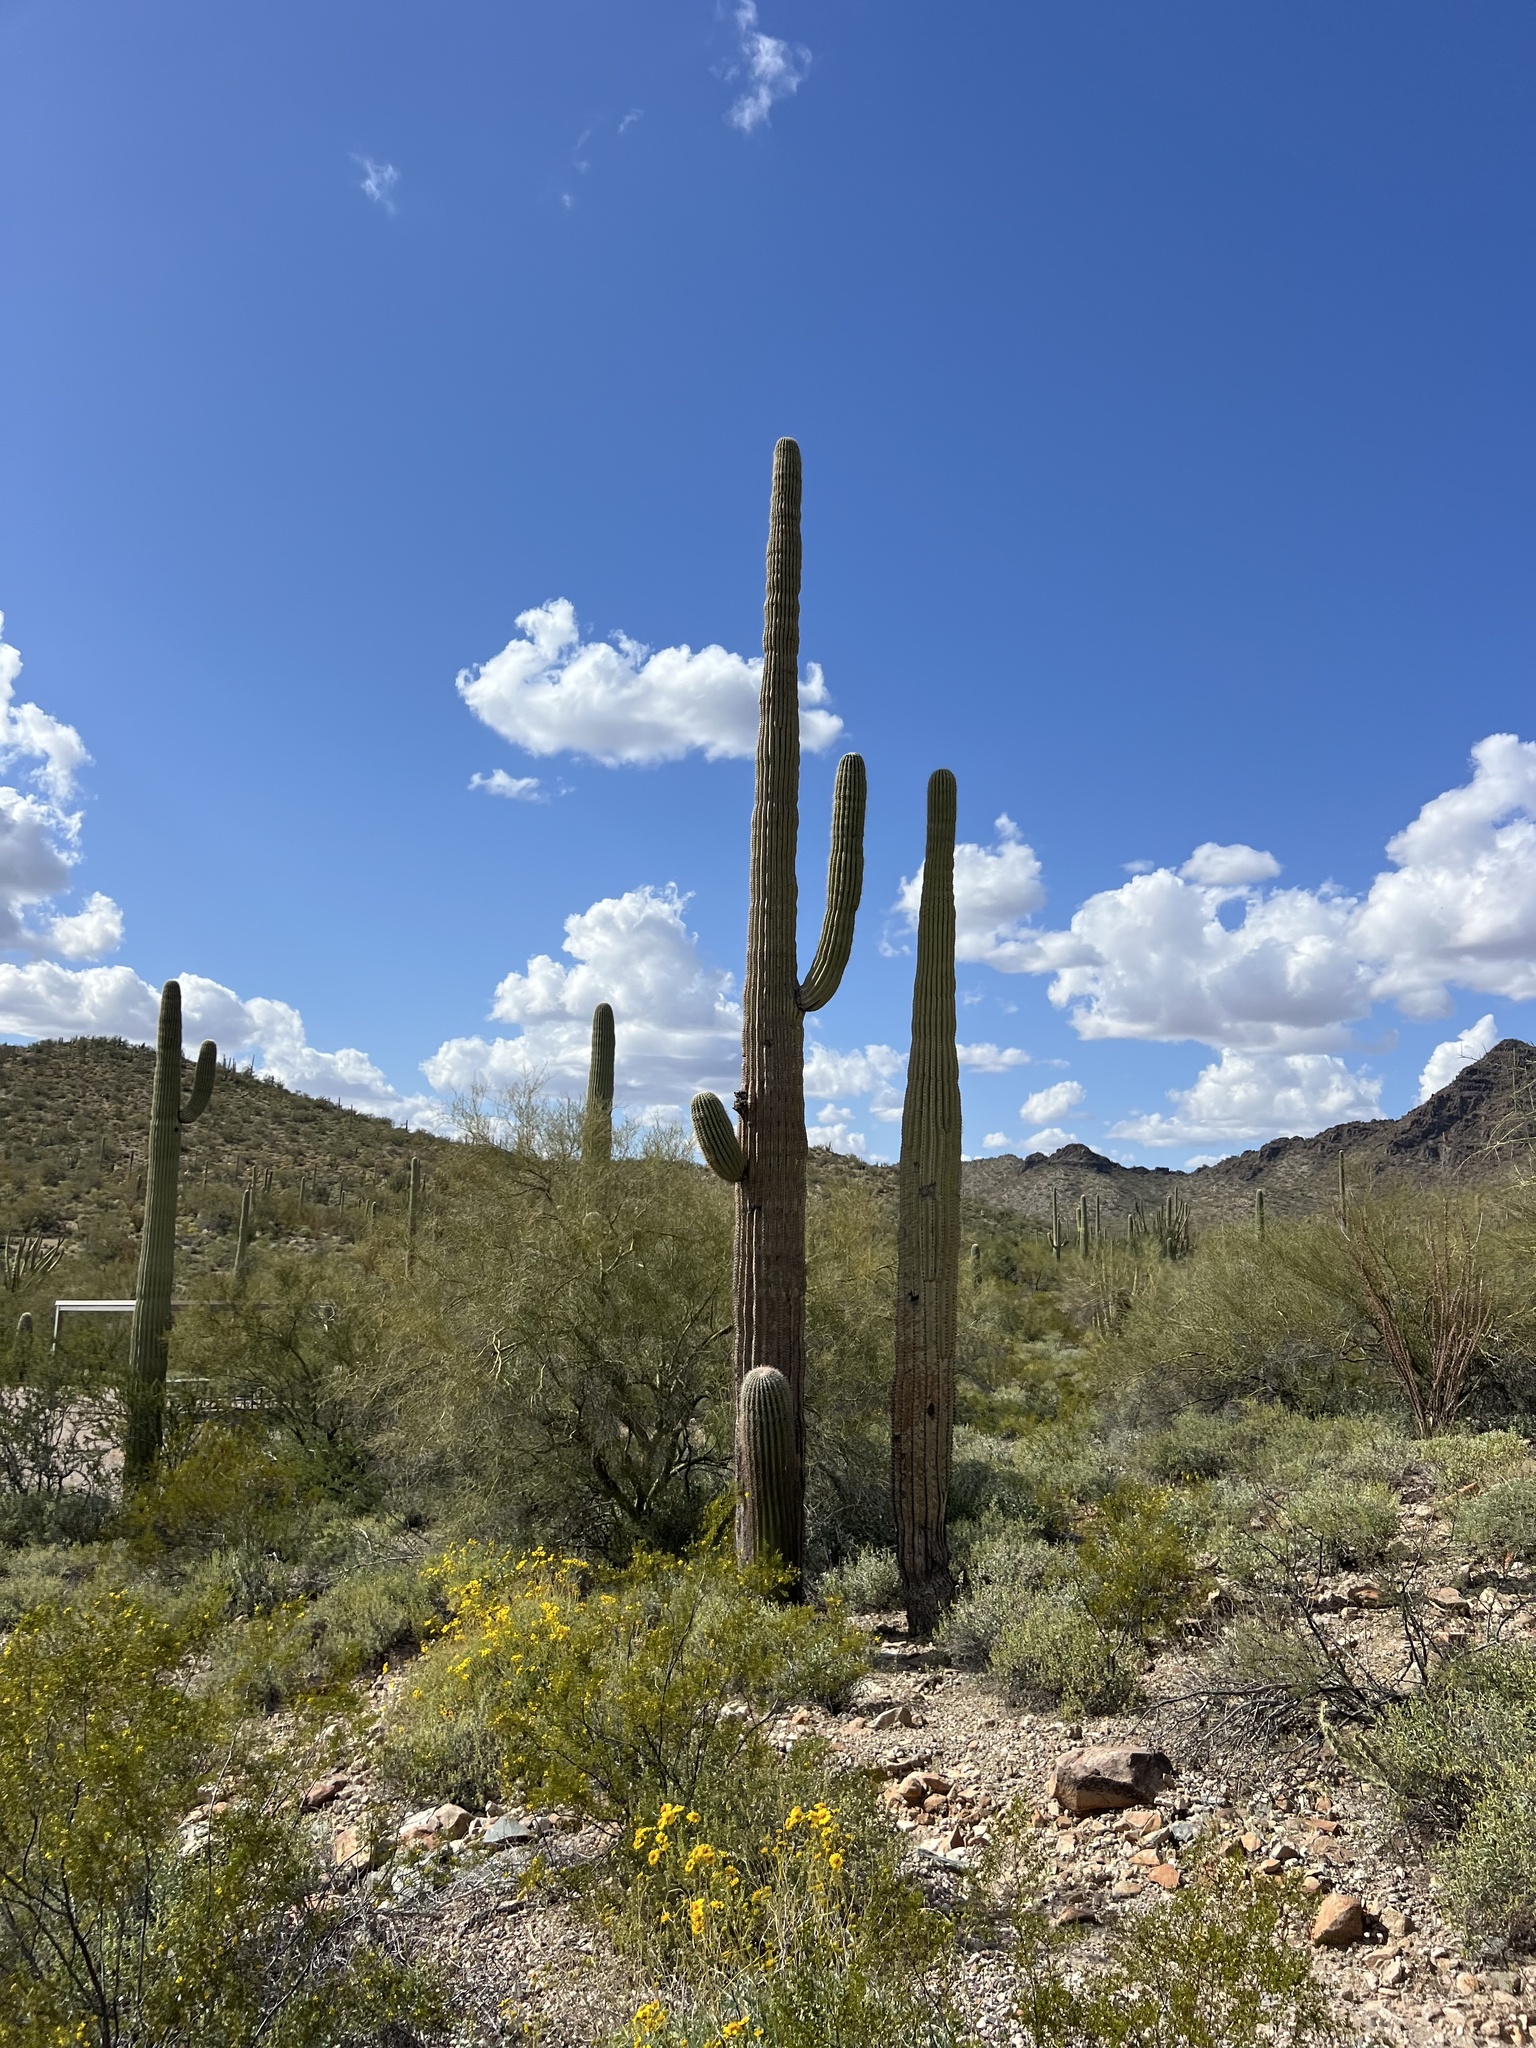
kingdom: Plantae
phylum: Tracheophyta
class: Magnoliopsida
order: Caryophyllales
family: Cactaceae
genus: Carnegiea
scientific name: Carnegiea gigantea
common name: Saguaro
